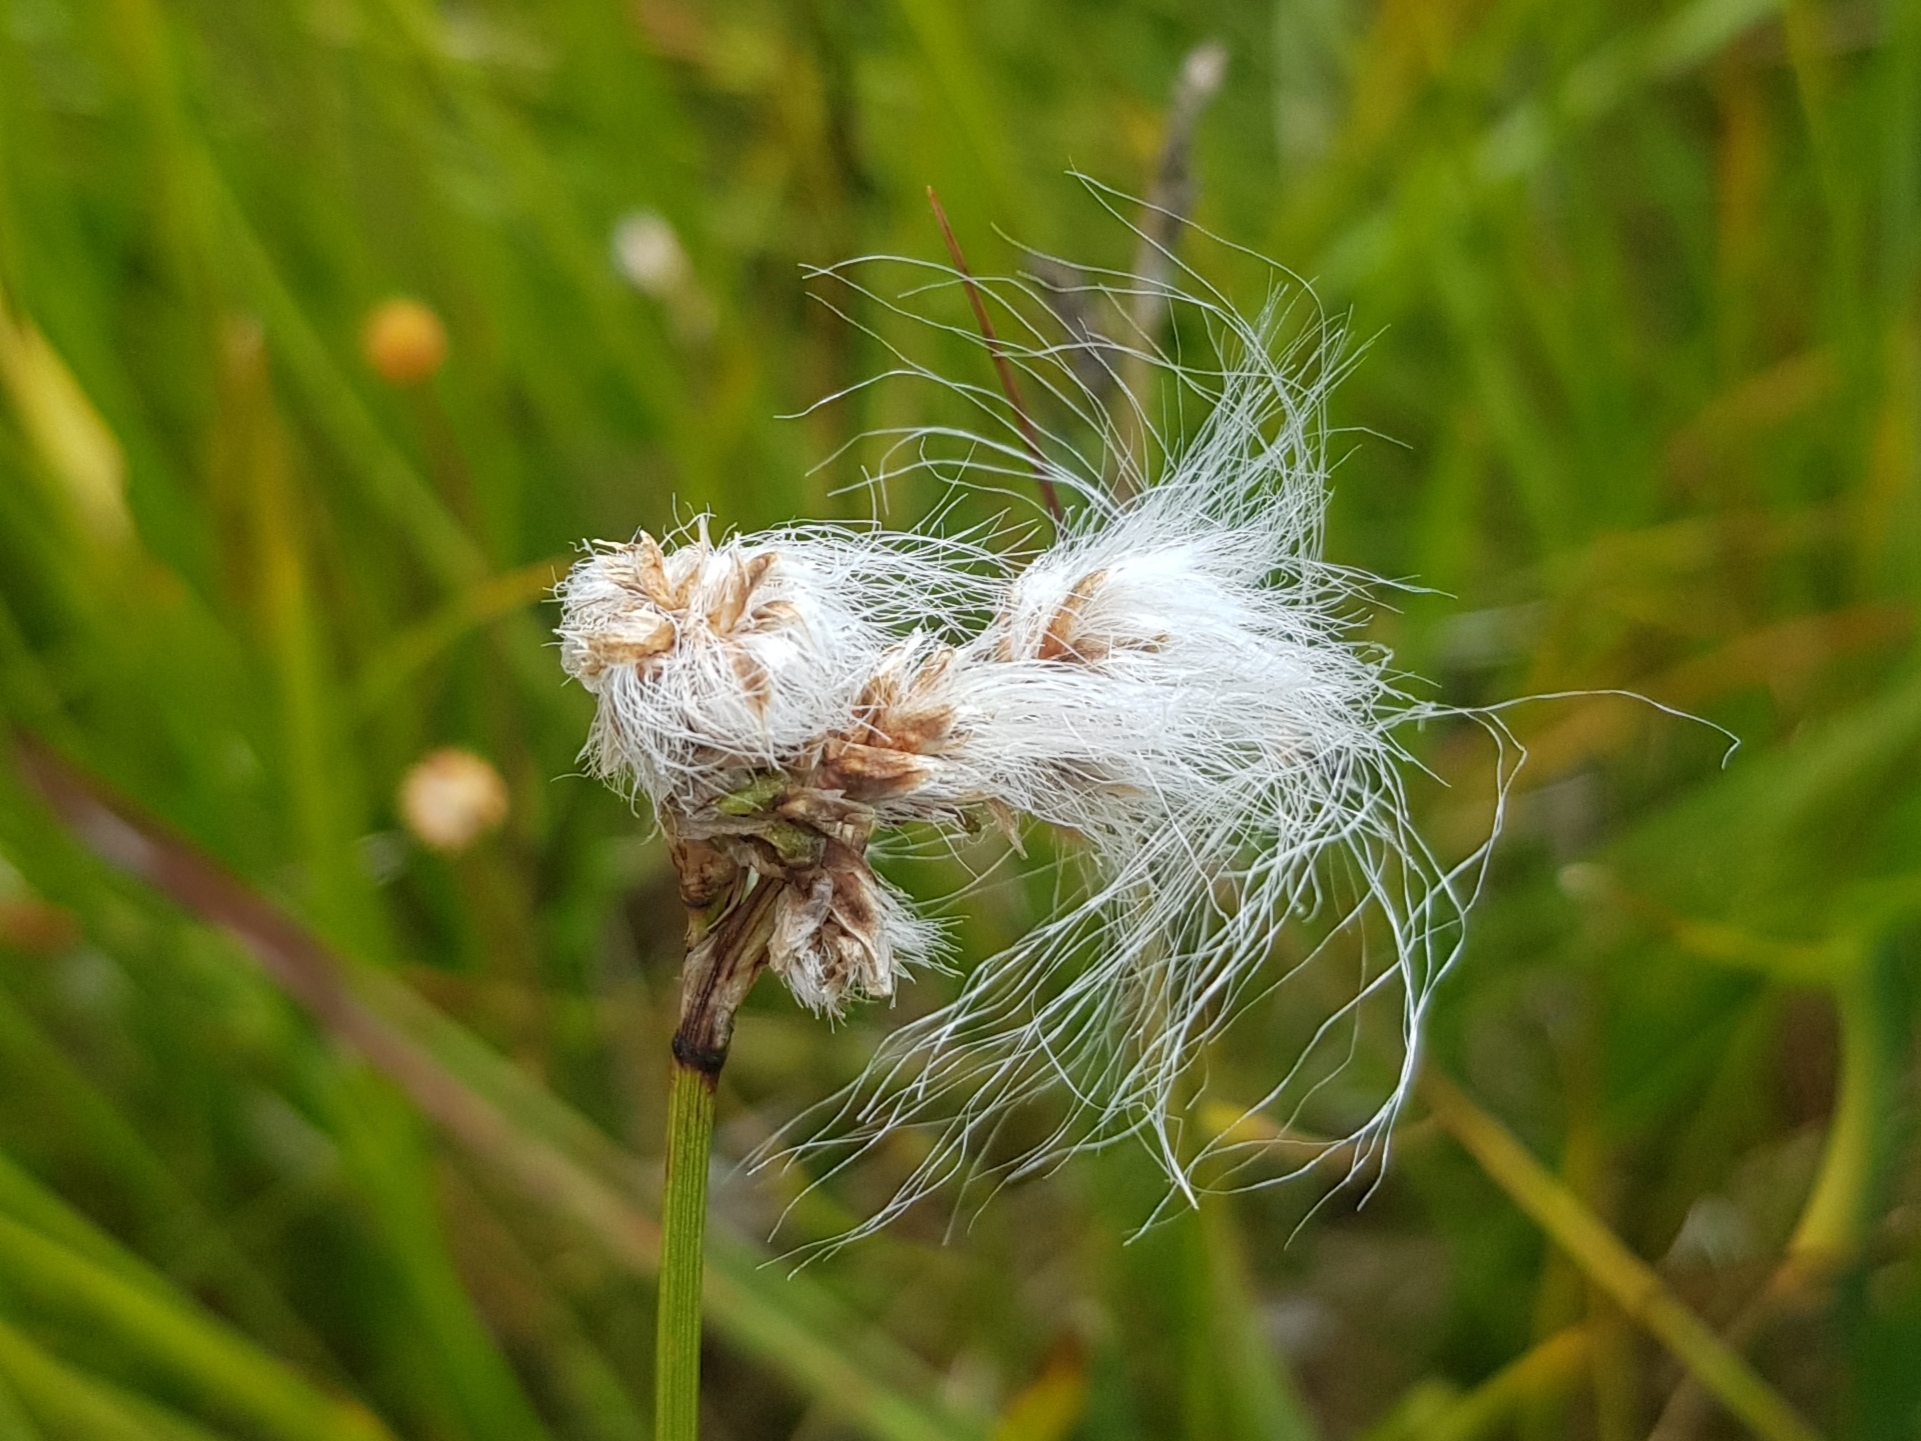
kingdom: Plantae
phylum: Tracheophyta
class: Liliopsida
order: Poales
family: Cyperaceae
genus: Eriophorum
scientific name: Eriophorum angustifolium
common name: Common cottongrass
